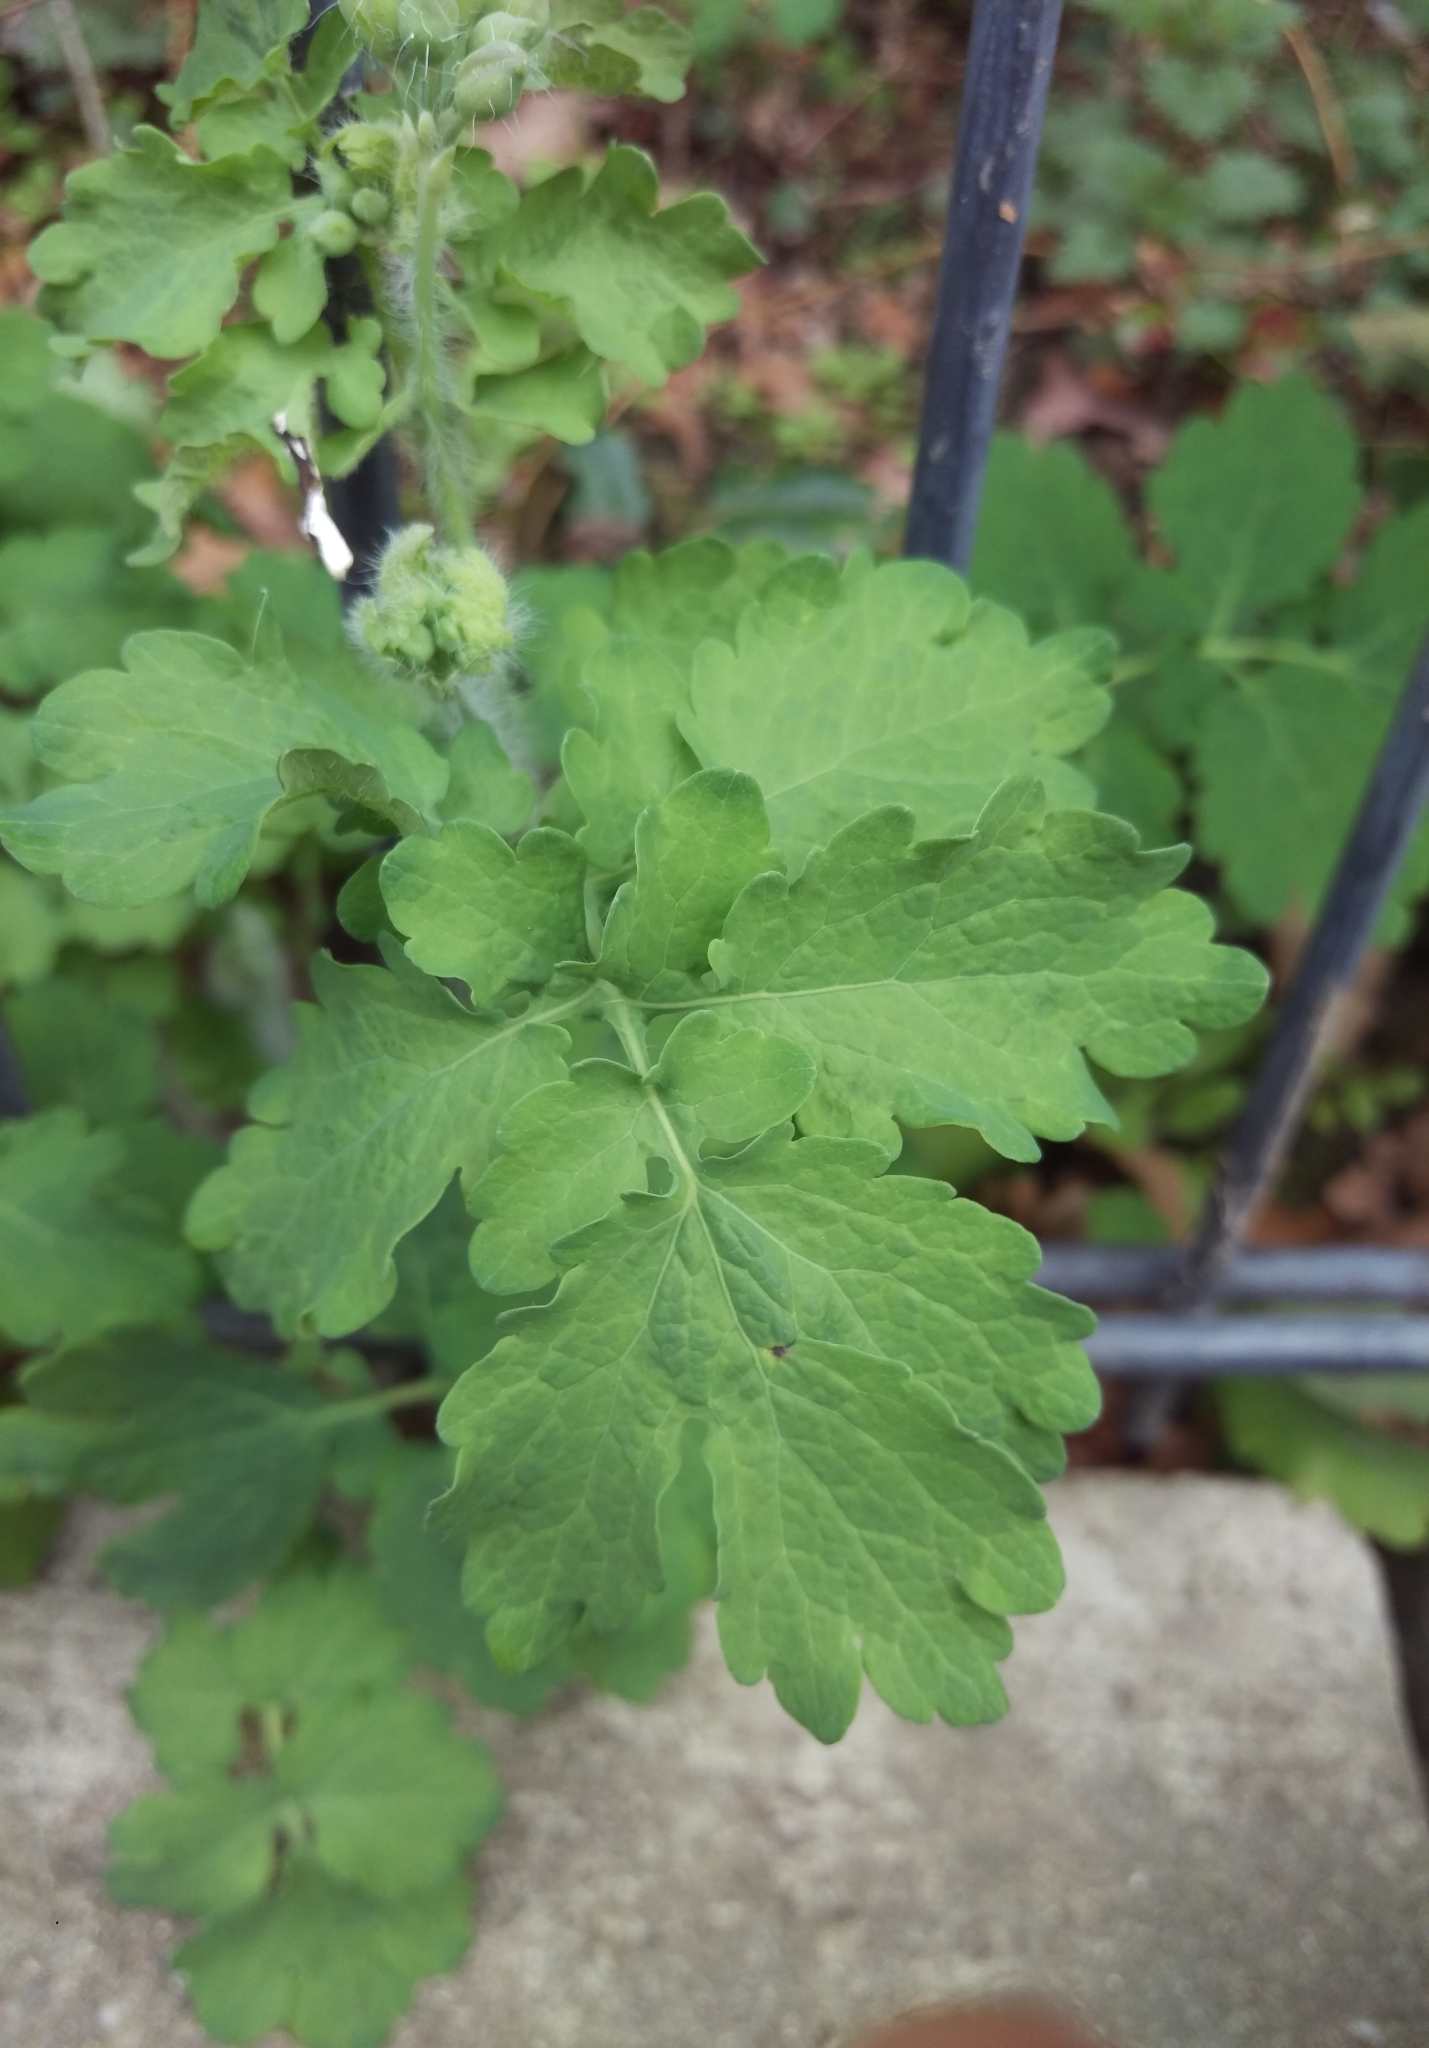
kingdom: Plantae
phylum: Tracheophyta
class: Magnoliopsida
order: Ranunculales
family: Papaveraceae
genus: Chelidonium
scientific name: Chelidonium majus
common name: Greater celandine
